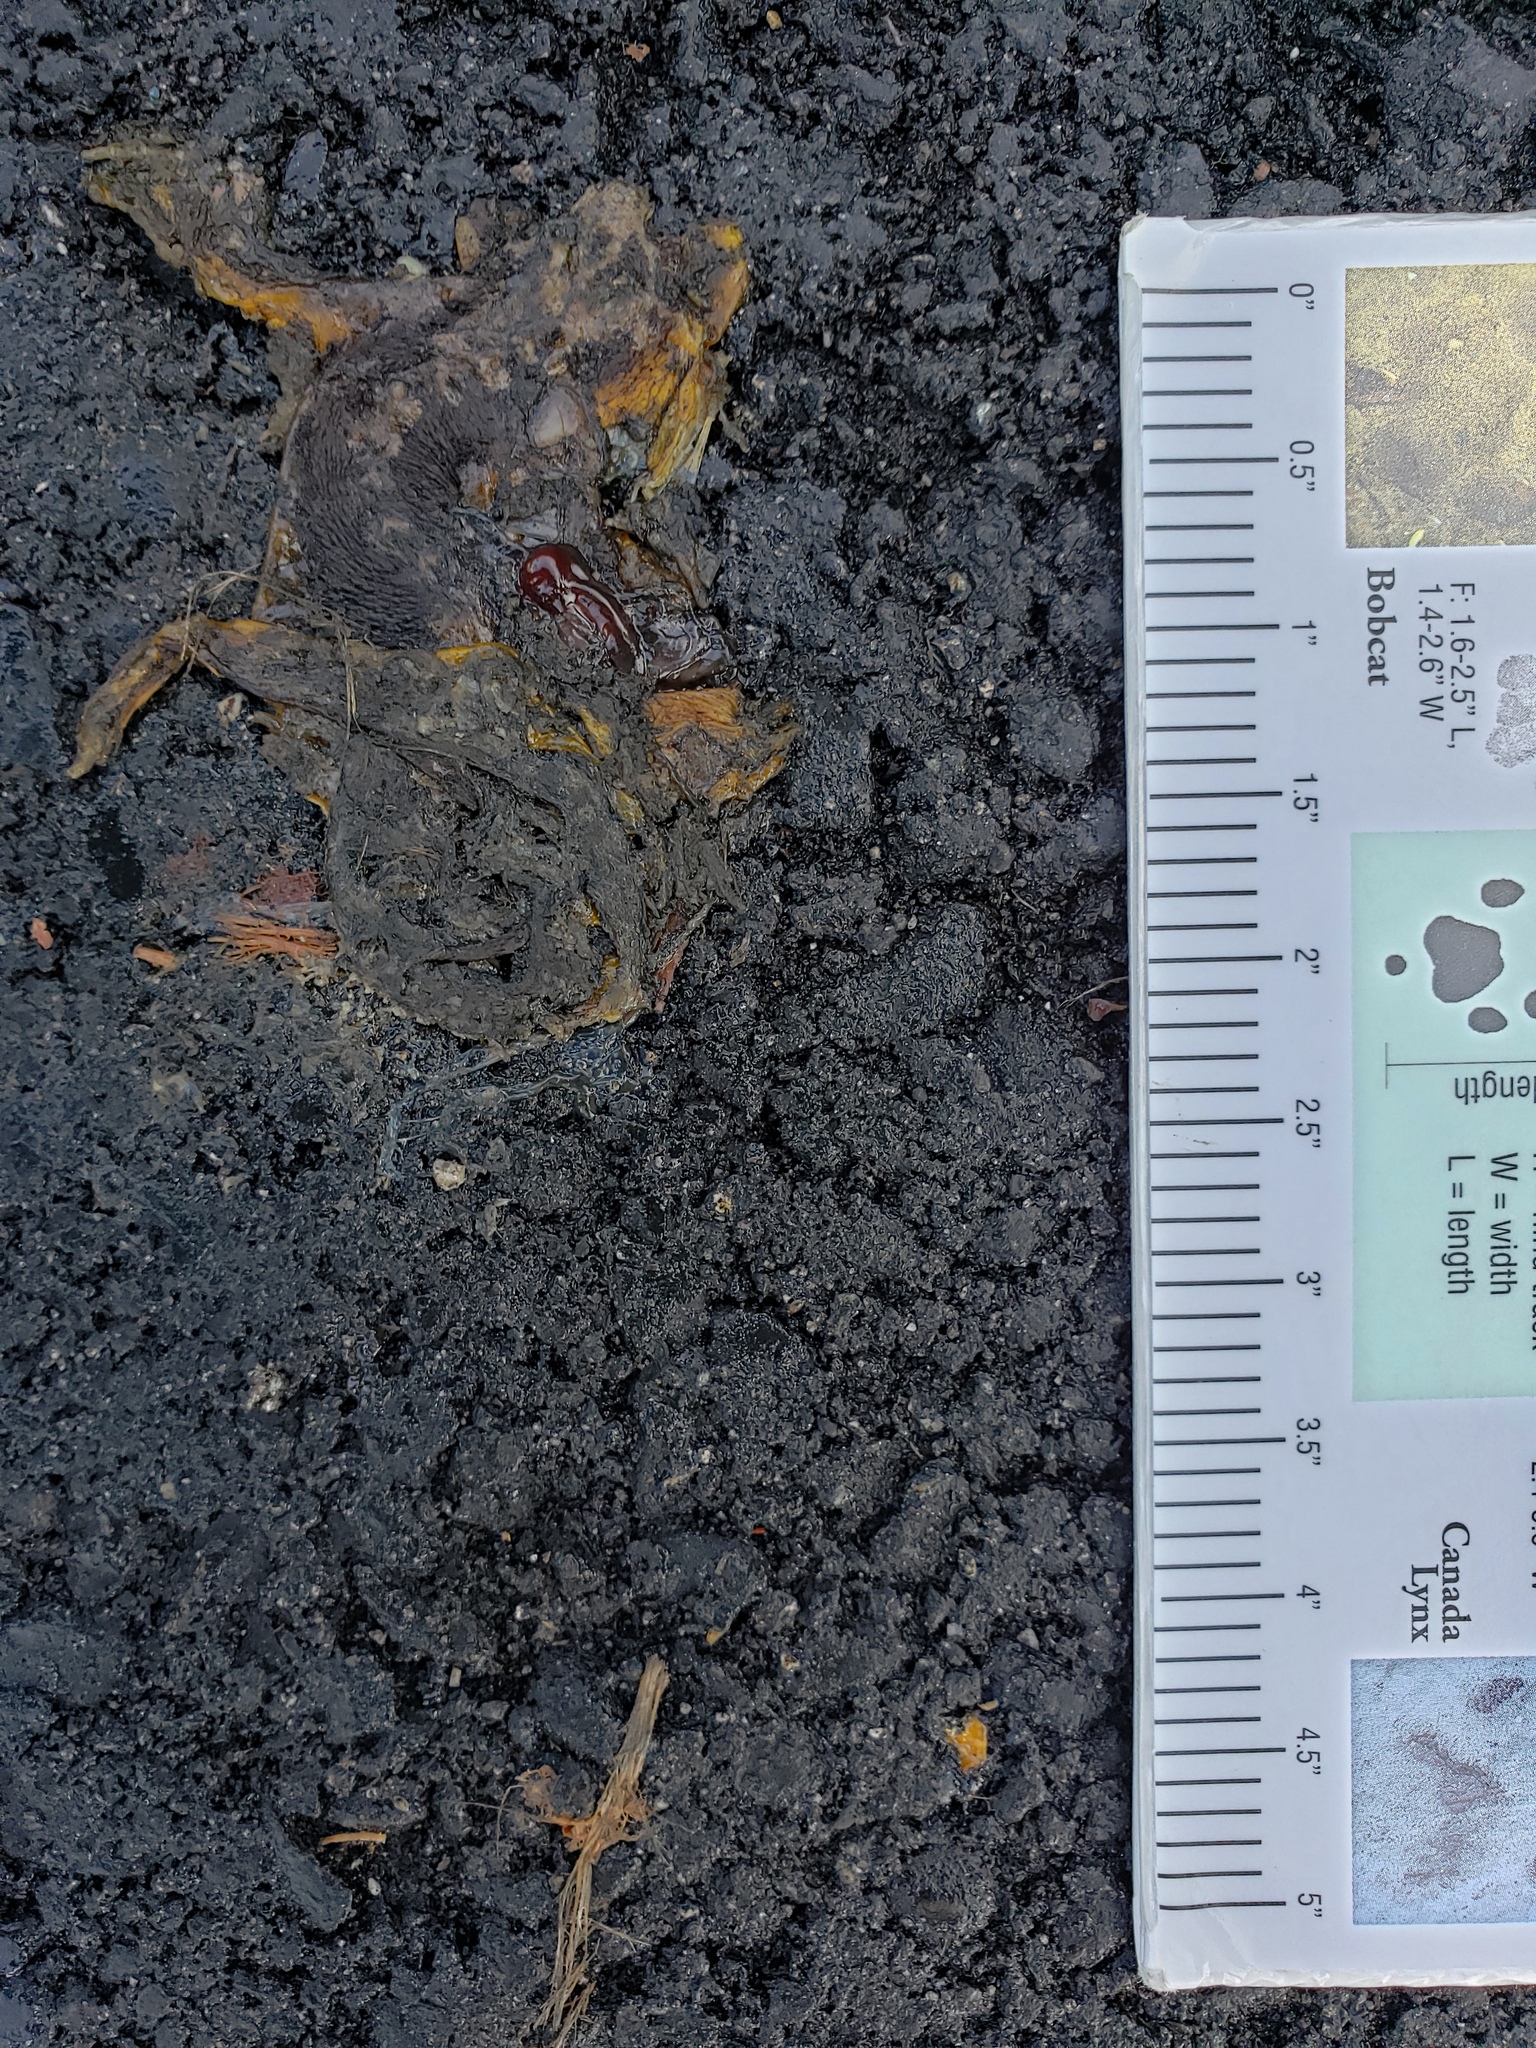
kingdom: Animalia
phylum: Chordata
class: Amphibia
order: Caudata
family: Salamandridae
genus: Taricha
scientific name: Taricha
